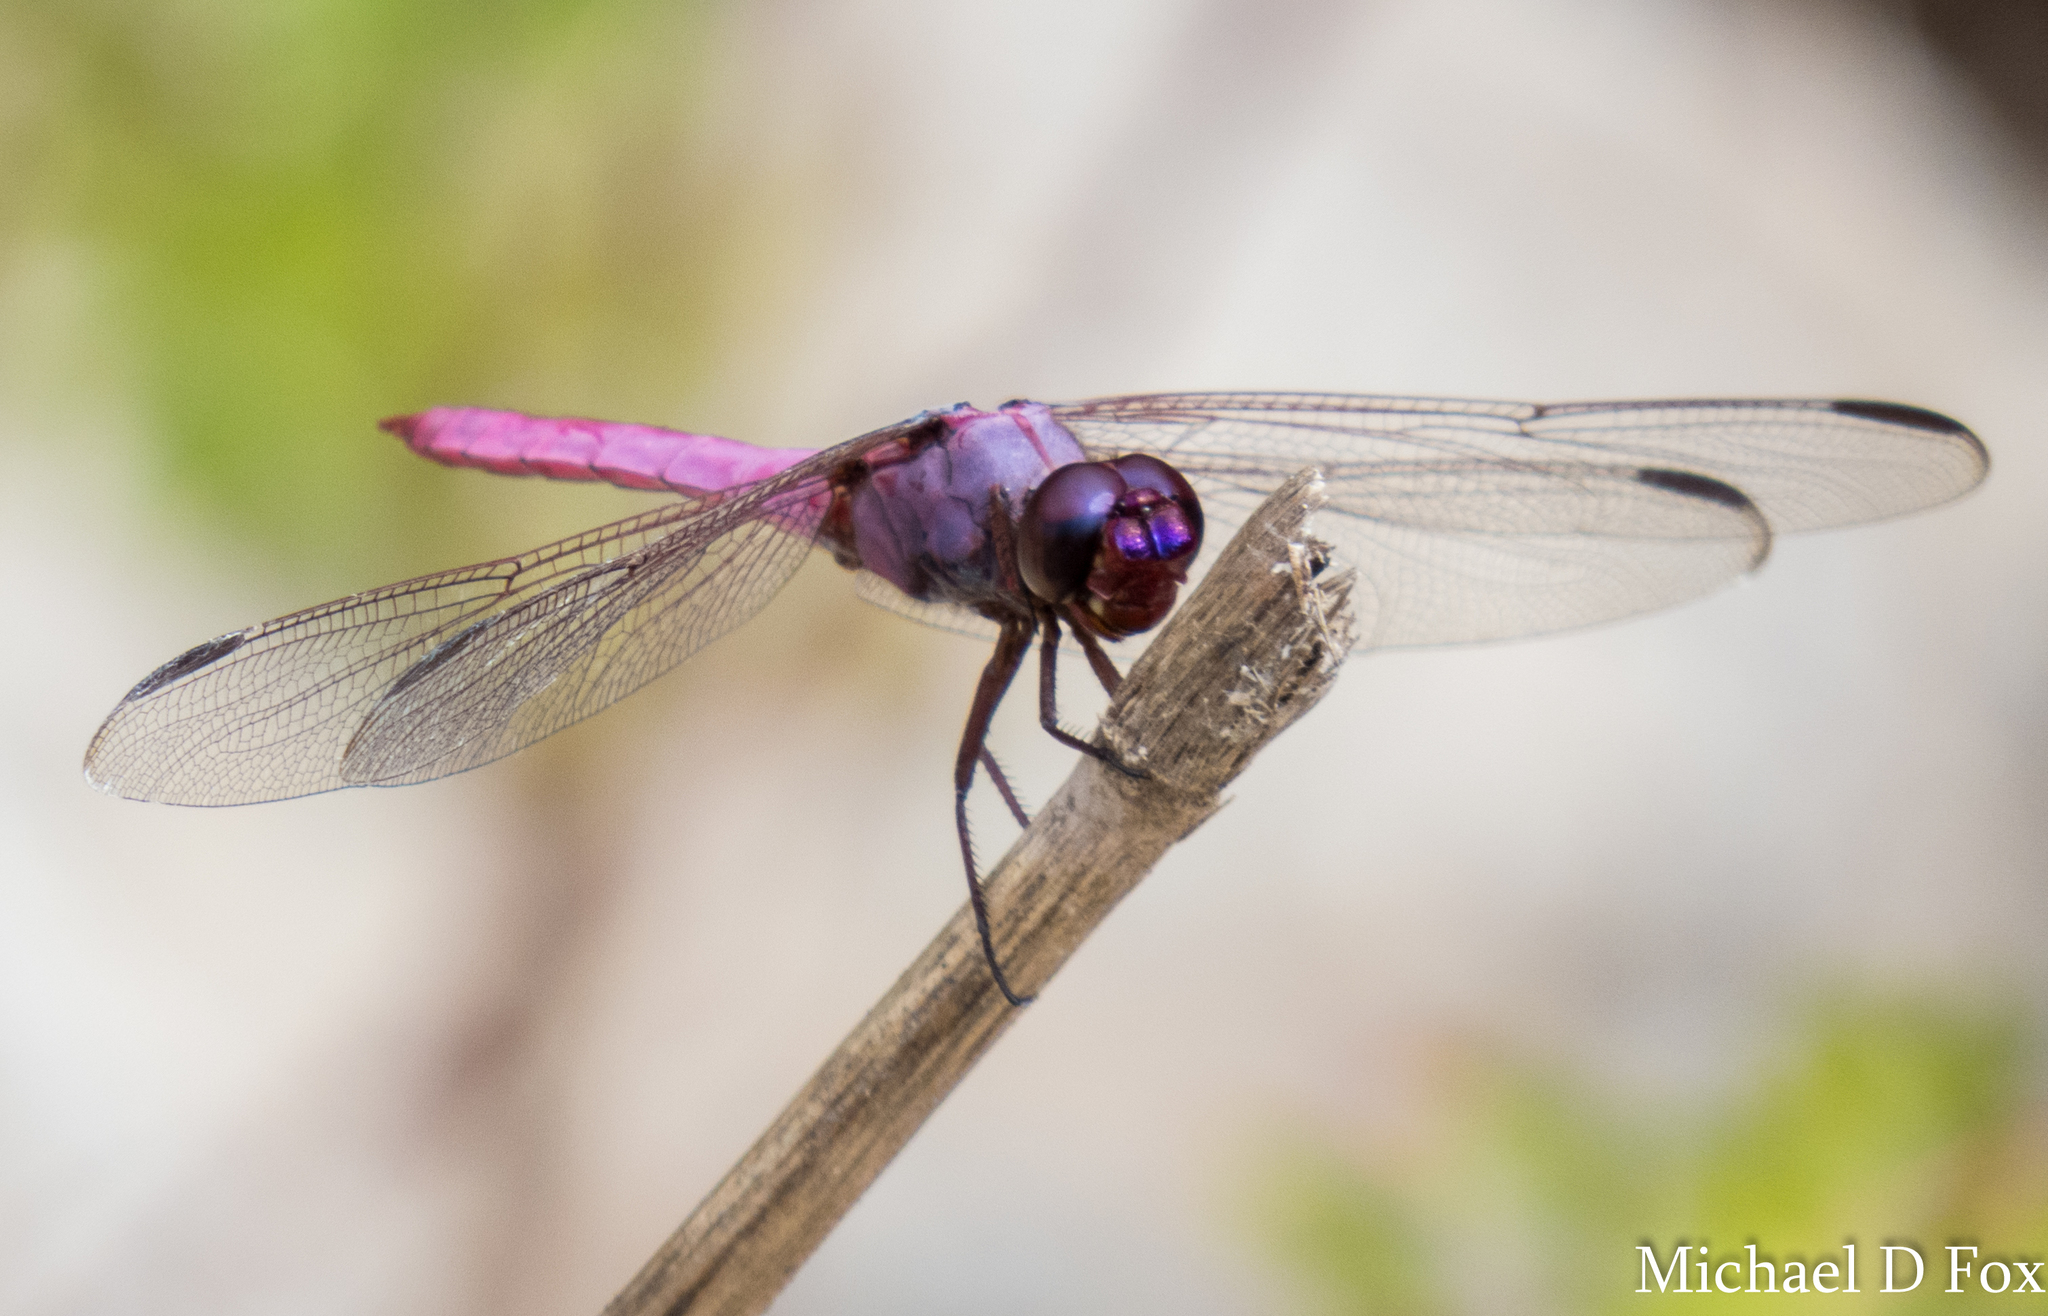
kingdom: Animalia
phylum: Arthropoda
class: Insecta
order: Odonata
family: Libellulidae
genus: Orthemis
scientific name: Orthemis ferruginea
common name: Roseate skimmer
